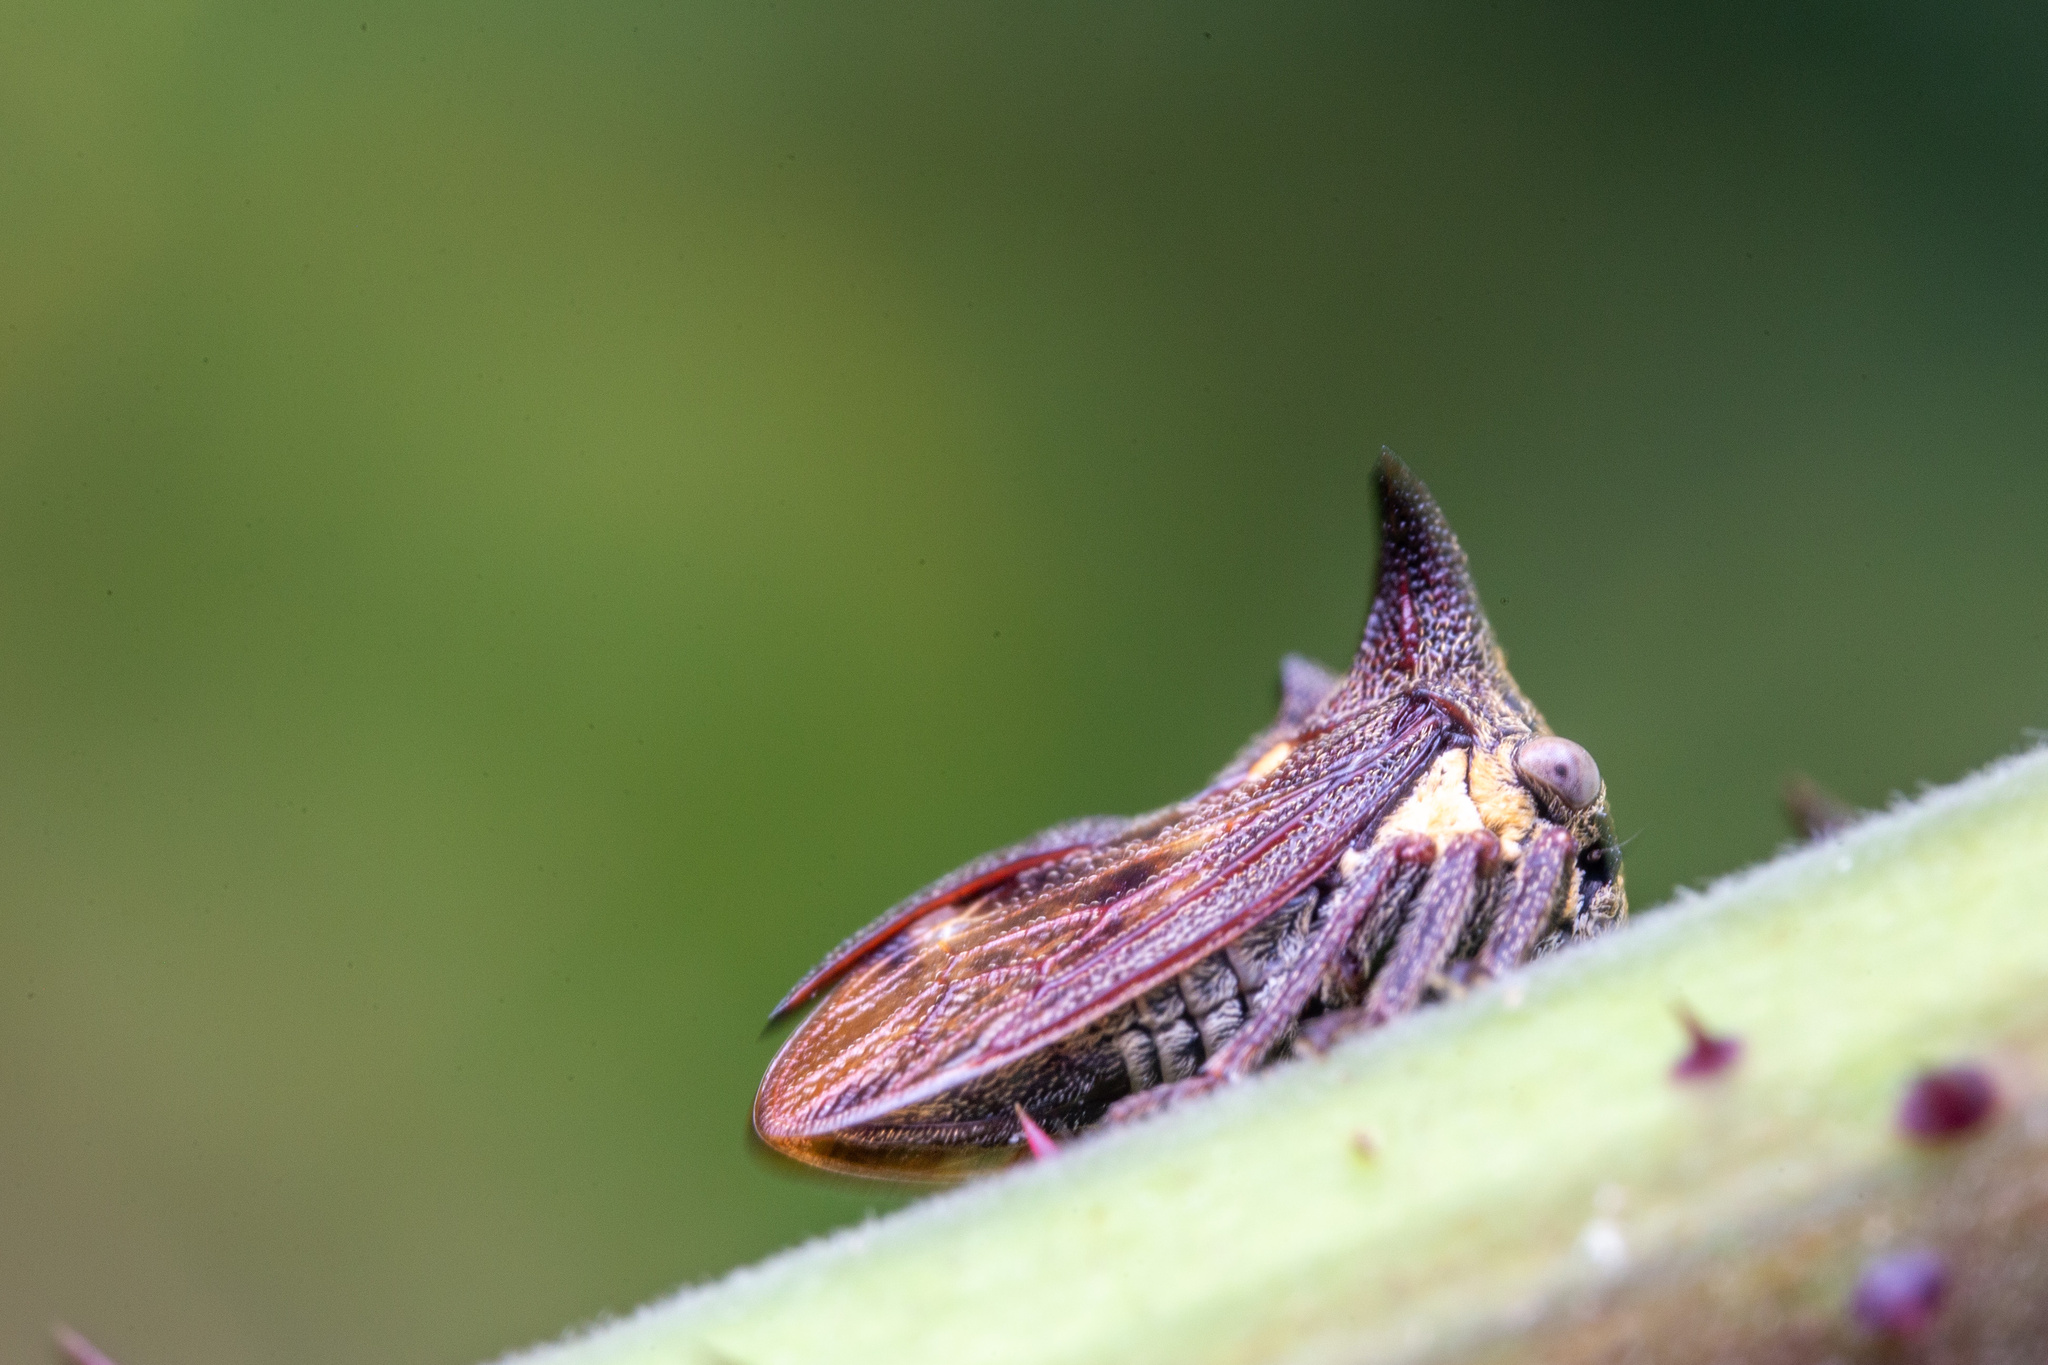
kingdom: Animalia
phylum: Arthropoda
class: Insecta
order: Hemiptera
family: Membracidae
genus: Acanthuchus
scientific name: Acanthuchus trispinifer
